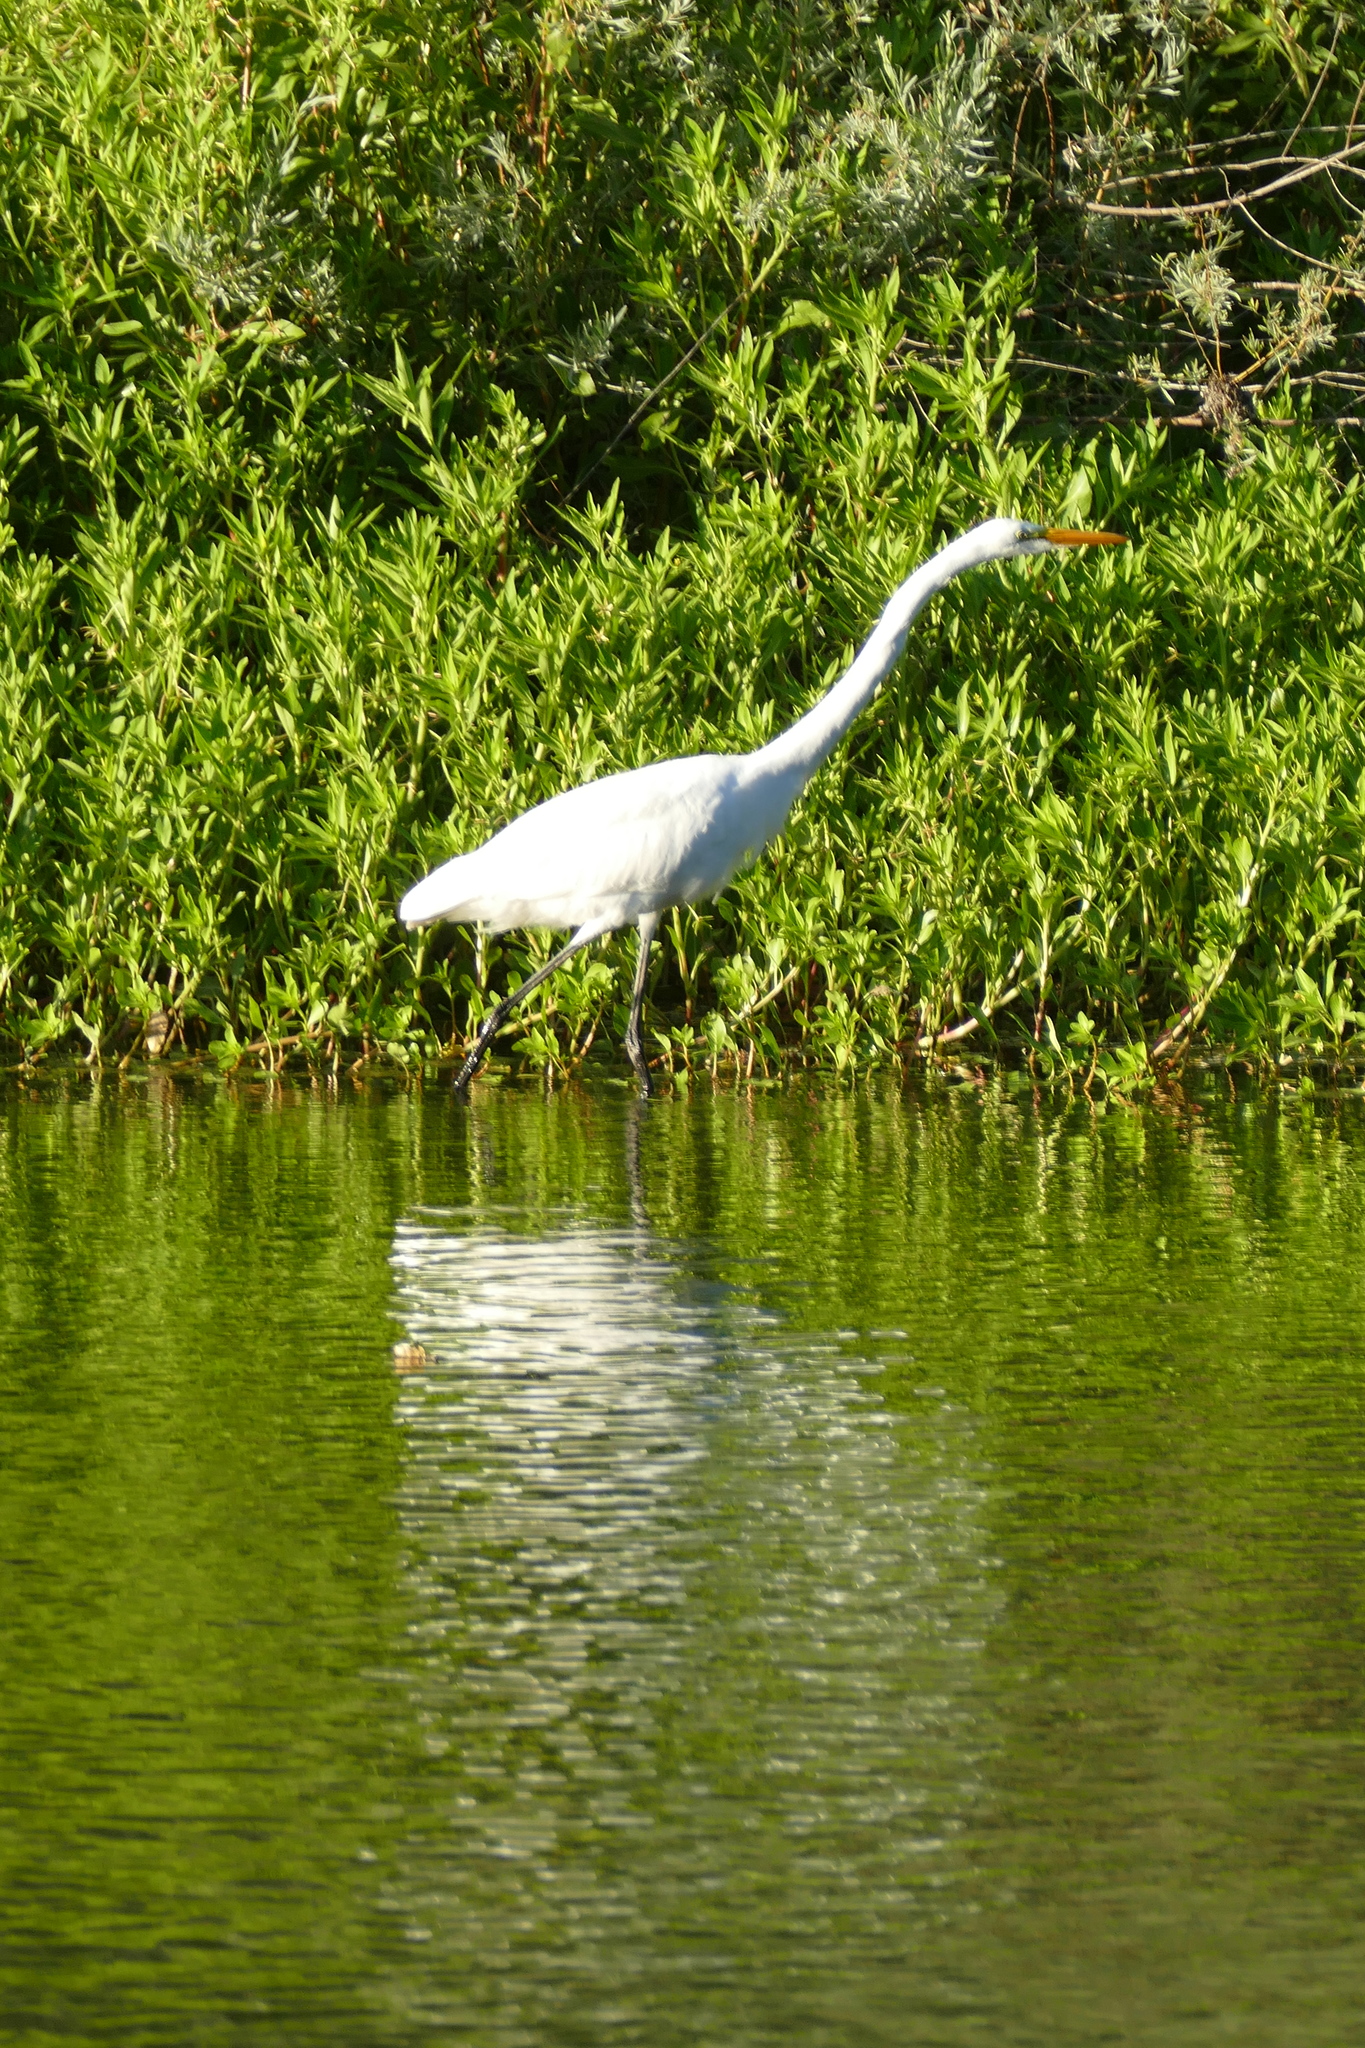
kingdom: Animalia
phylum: Chordata
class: Aves
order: Pelecaniformes
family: Ardeidae
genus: Ardea
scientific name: Ardea alba
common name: Great egret
